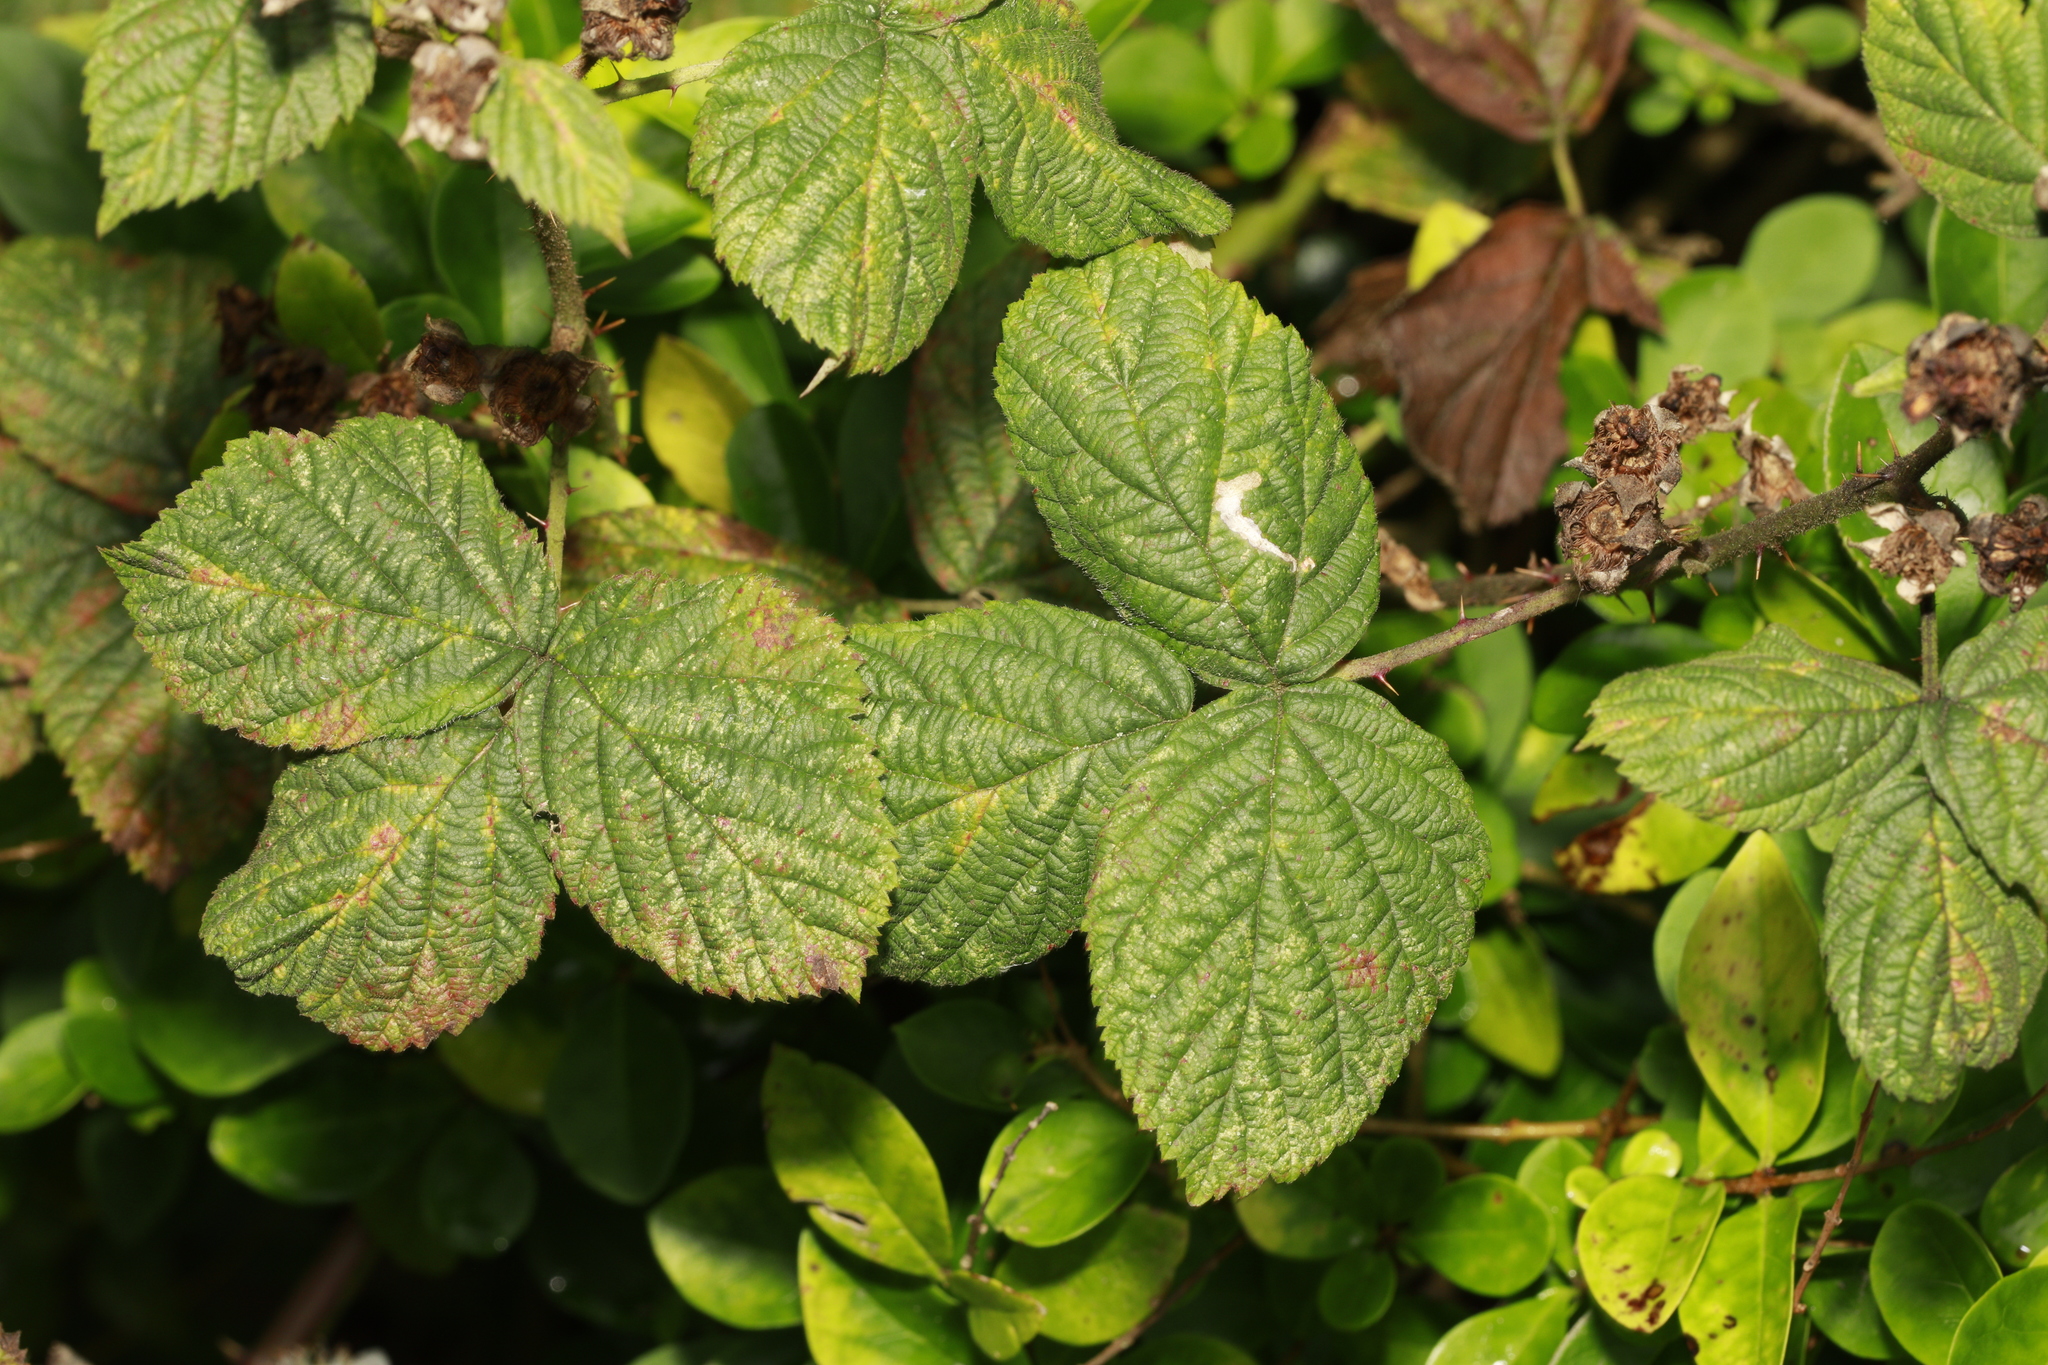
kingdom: Animalia
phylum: Arthropoda
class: Insecta
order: Lepidoptera
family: Tischeriidae
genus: Coptotriche
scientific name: Coptotriche marginea
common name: Bordered carl
